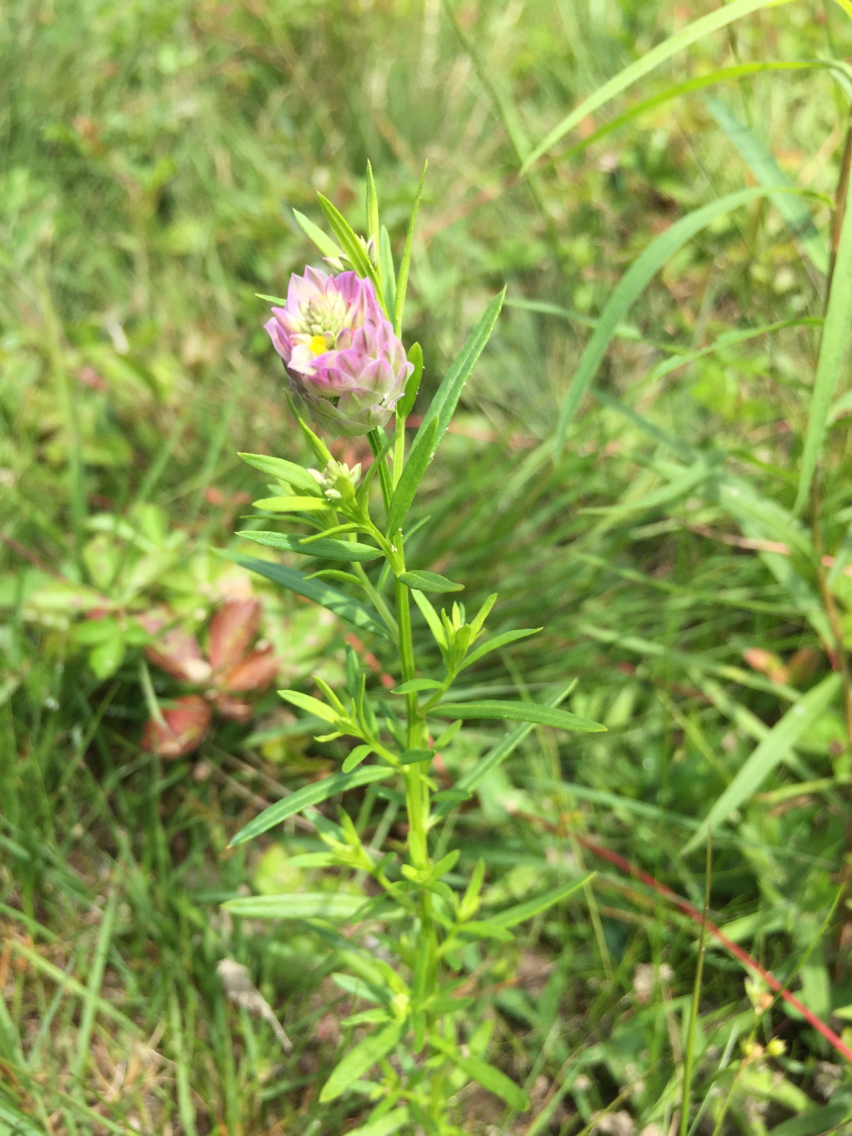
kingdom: Plantae
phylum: Tracheophyta
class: Magnoliopsida
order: Fabales
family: Polygalaceae
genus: Polygala
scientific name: Polygala sanguinea
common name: Blood milkwort
